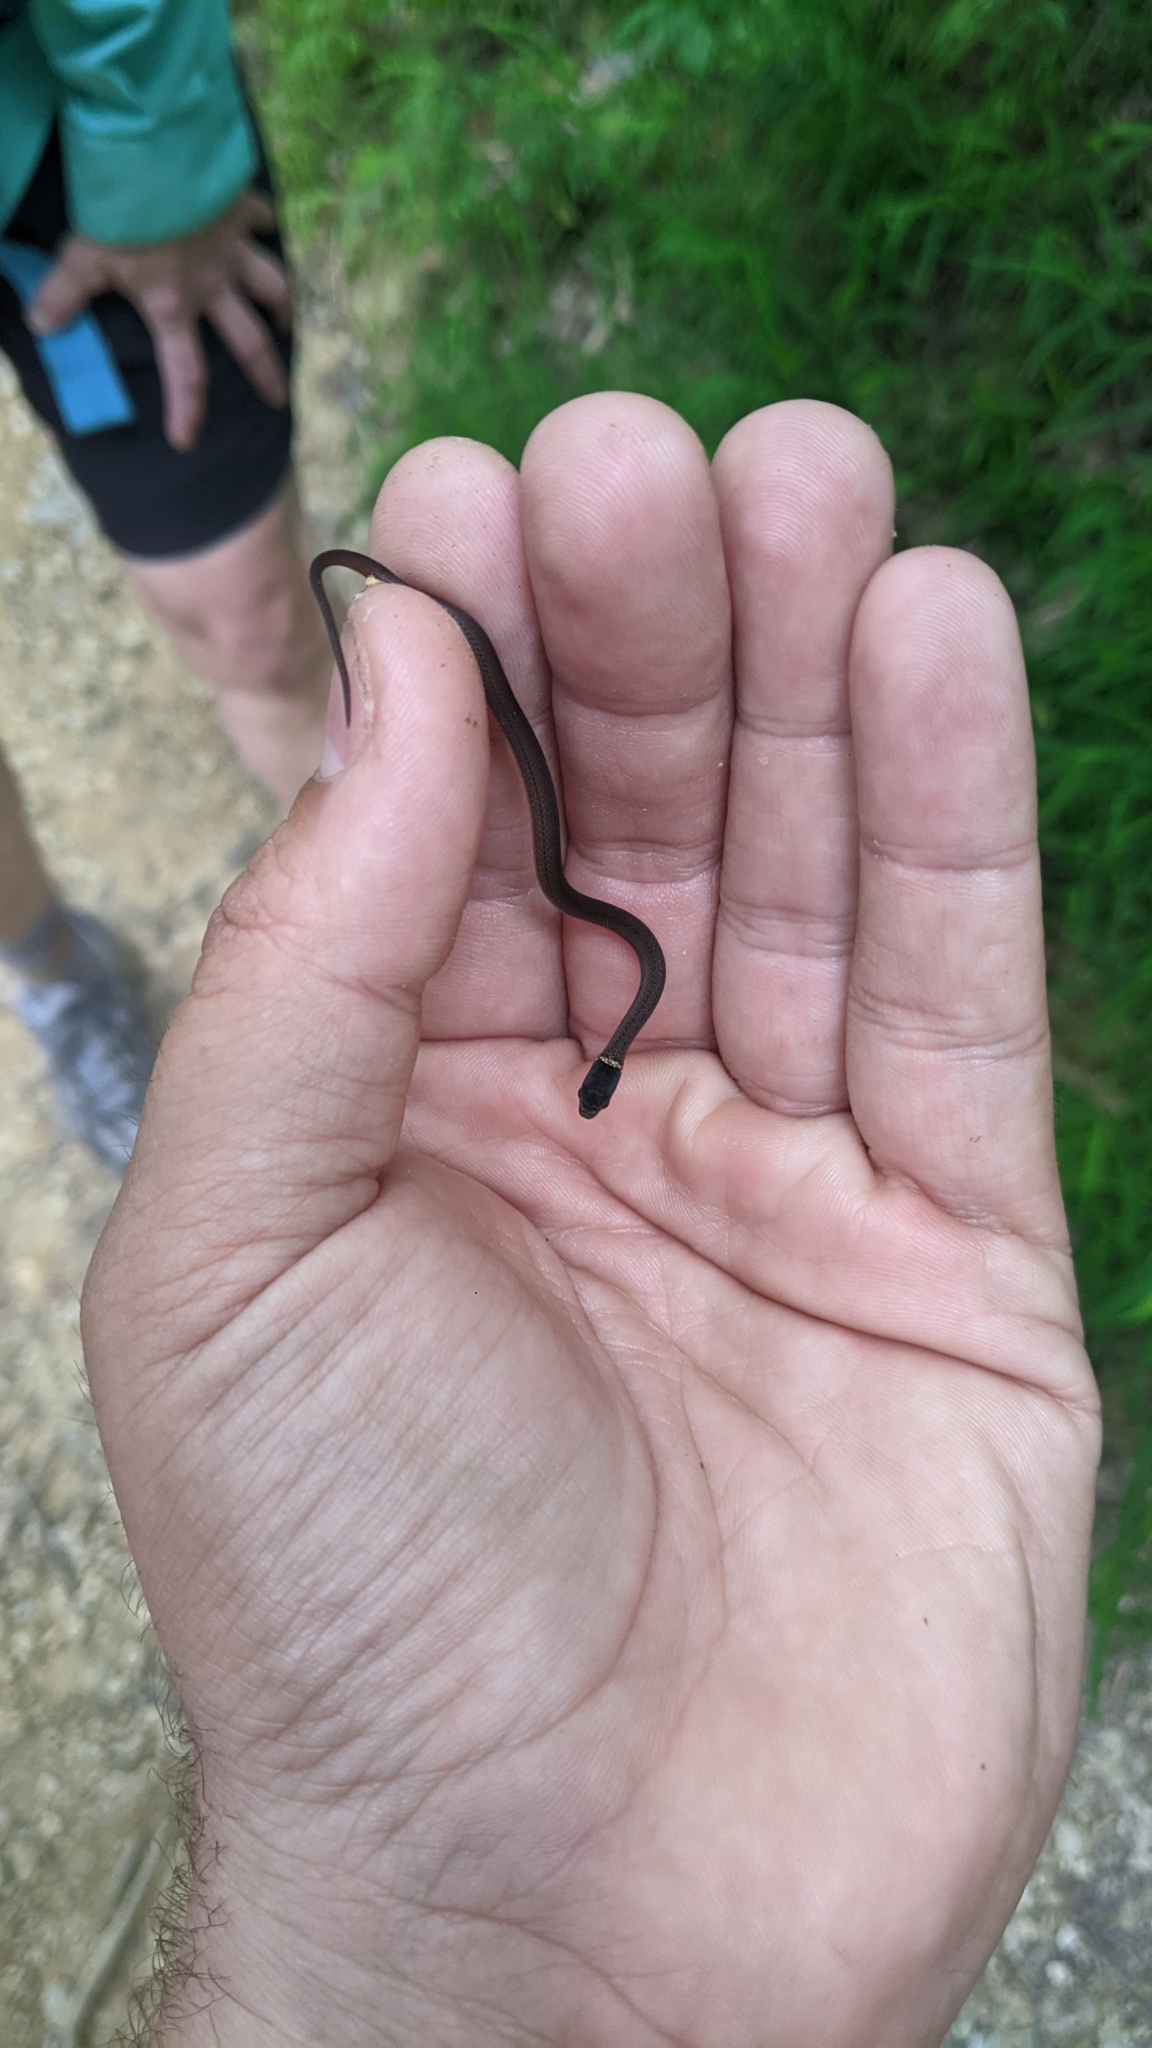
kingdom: Animalia
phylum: Chordata
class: Squamata
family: Colubridae
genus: Storeria
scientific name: Storeria occipitomaculata
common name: Redbelly snake
